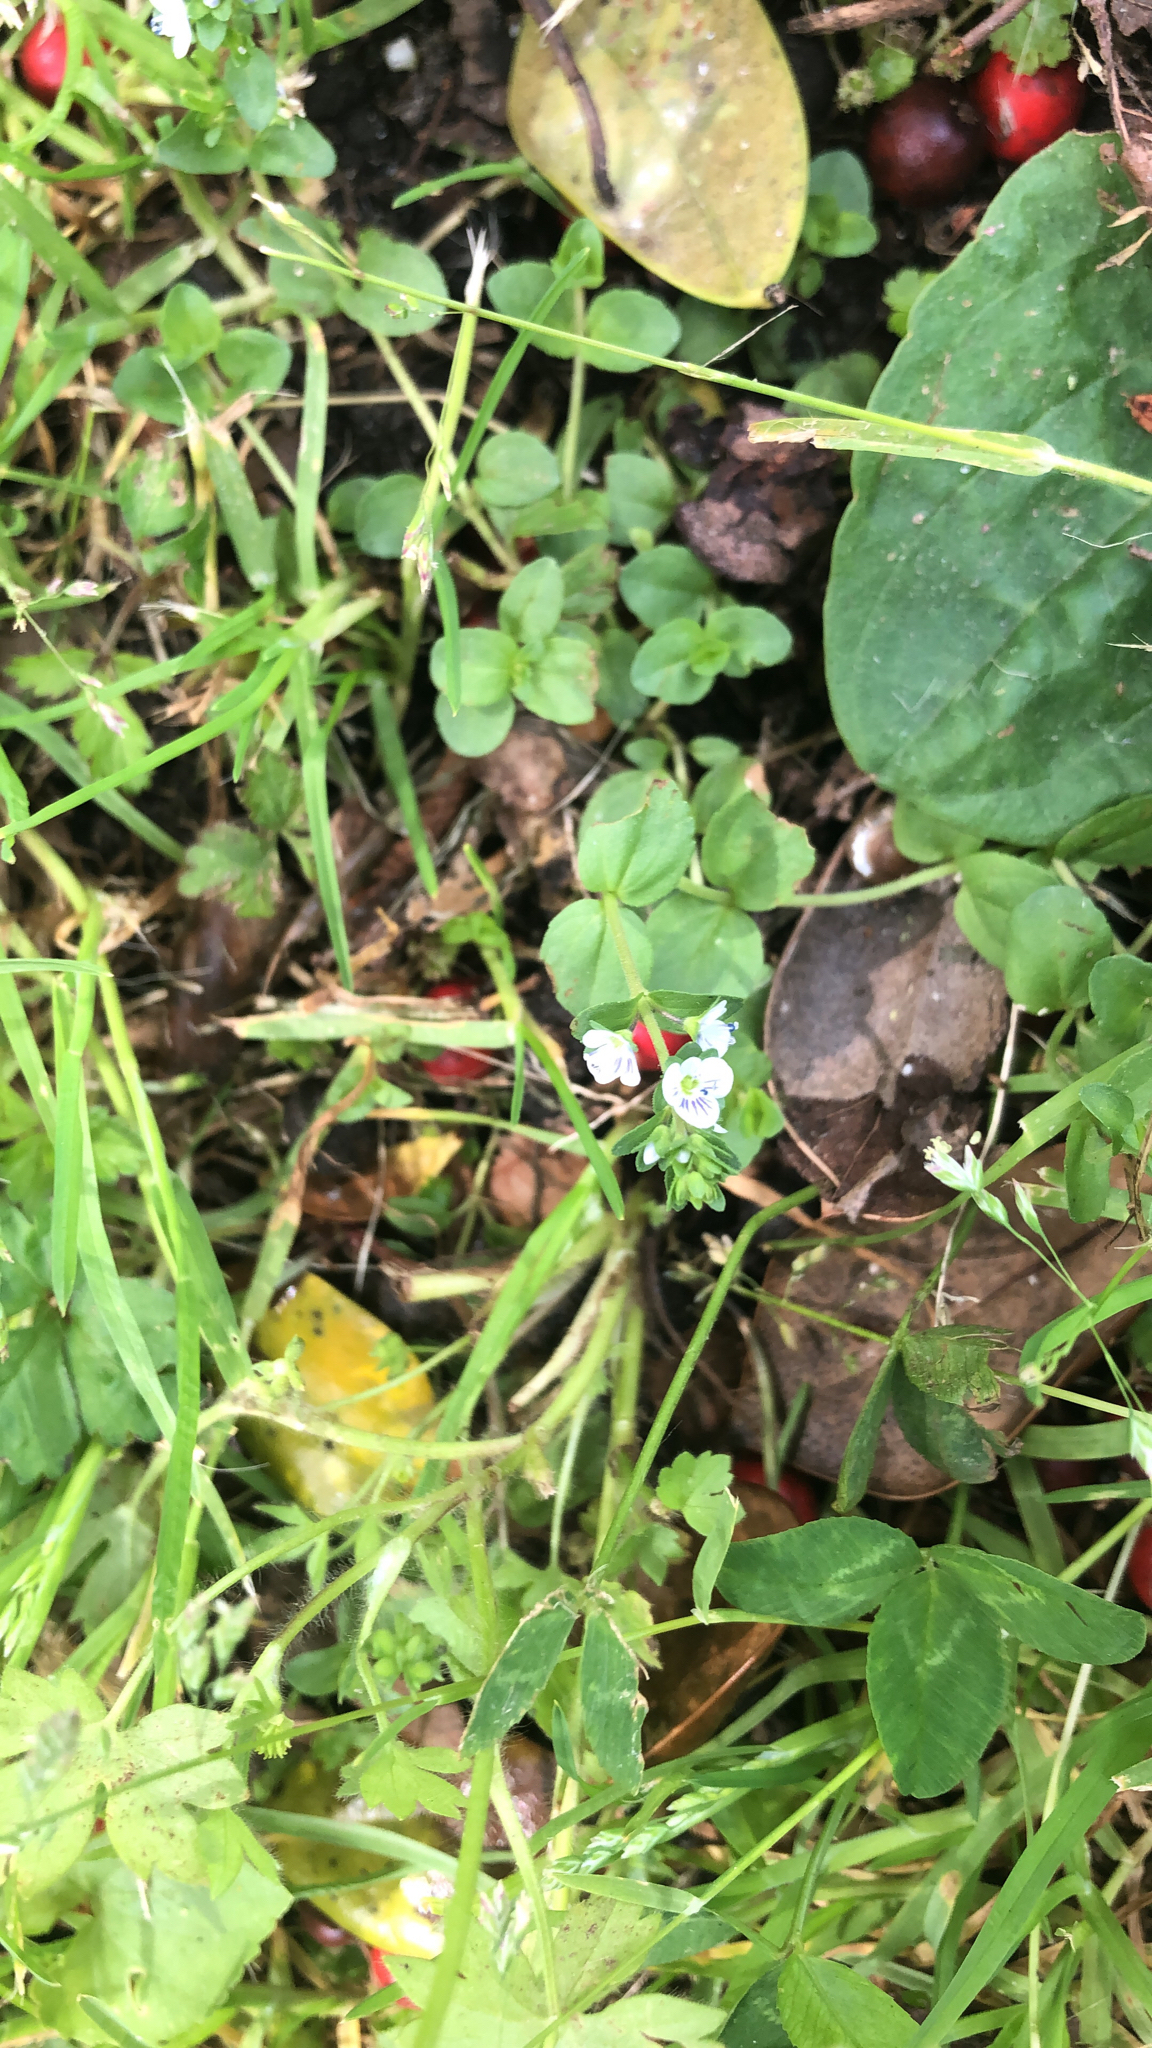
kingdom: Plantae
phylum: Tracheophyta
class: Magnoliopsida
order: Lamiales
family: Plantaginaceae
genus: Veronica
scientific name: Veronica serpyllifolia
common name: Thyme-leaved speedwell
